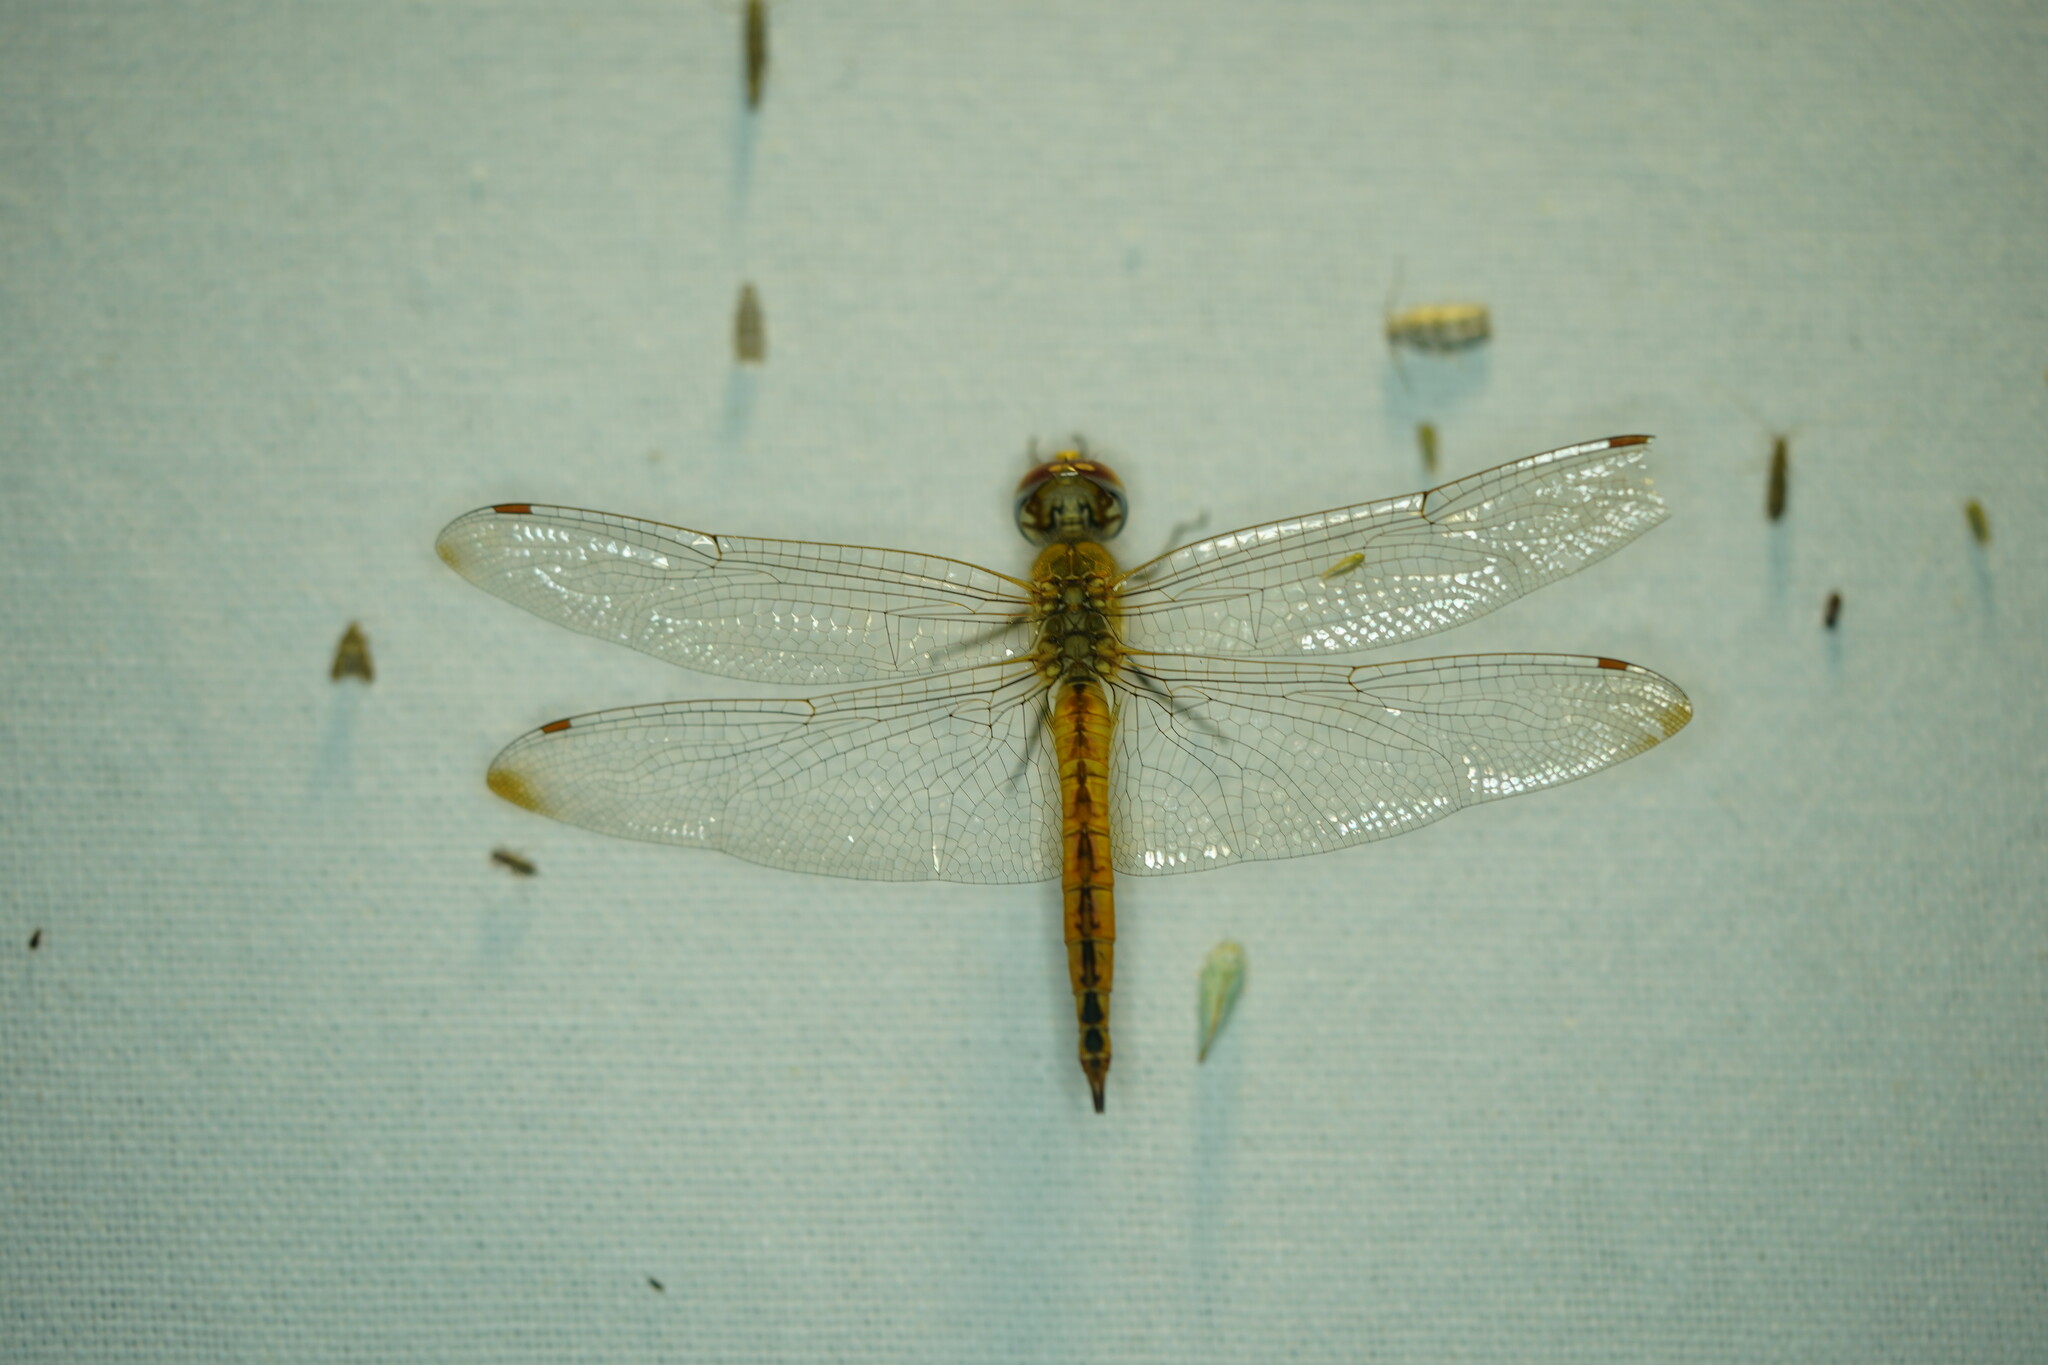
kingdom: Animalia
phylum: Arthropoda
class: Insecta
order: Odonata
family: Libellulidae
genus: Pantala
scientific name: Pantala flavescens
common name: Wandering glider
